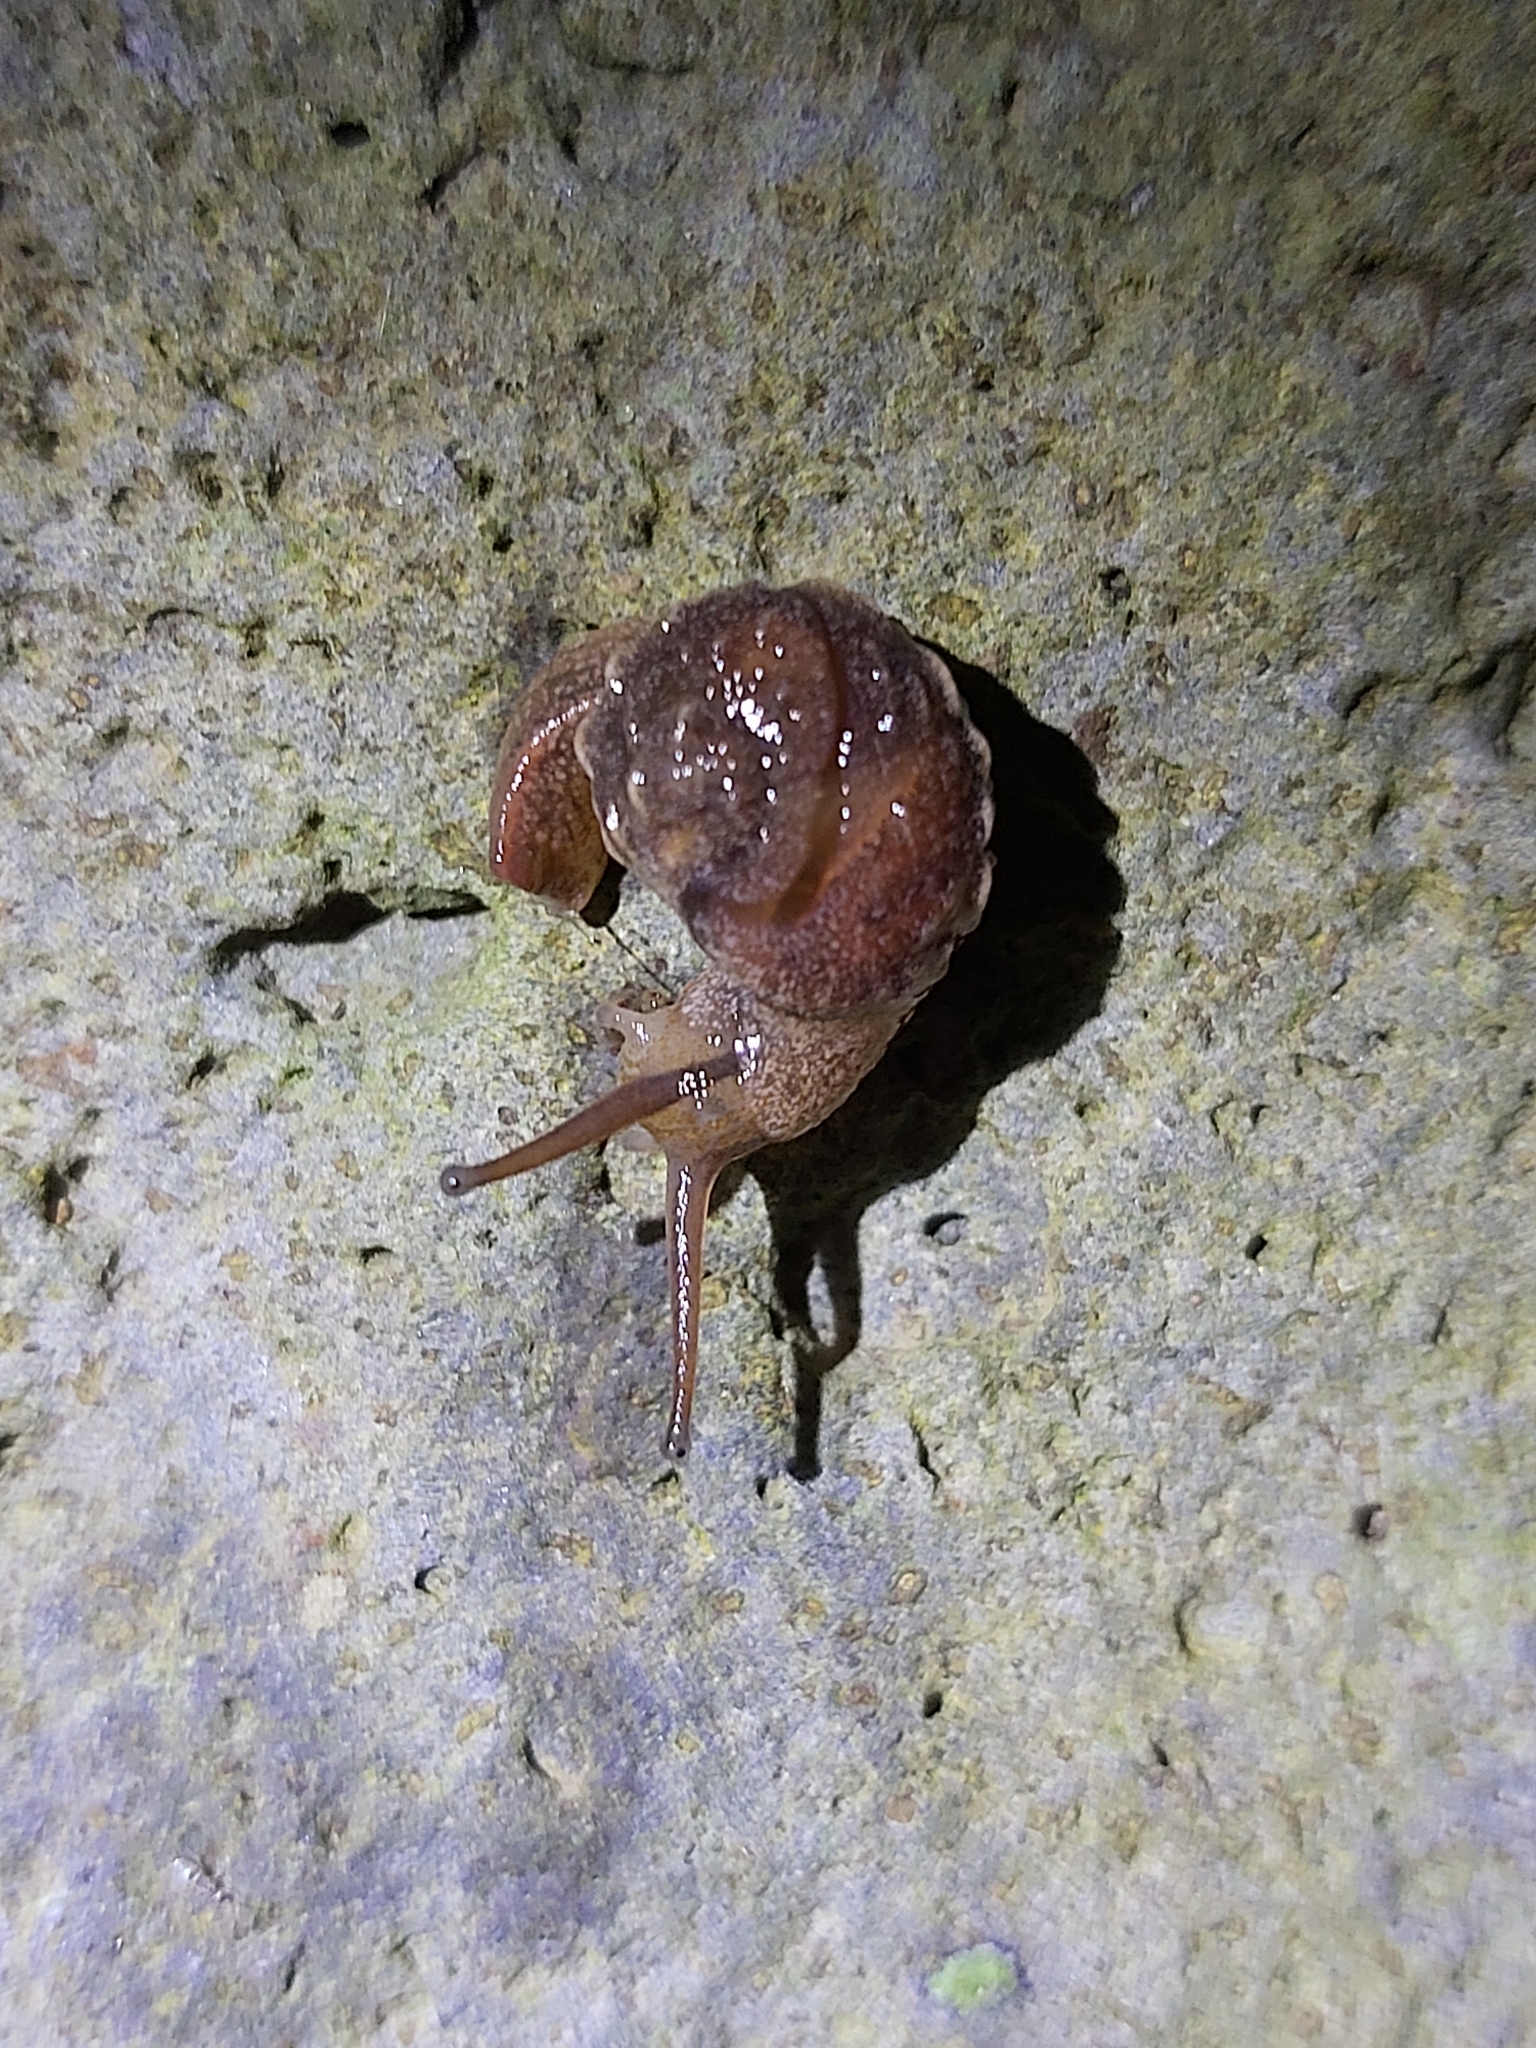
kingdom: Animalia
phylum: Mollusca
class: Gastropoda
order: Stylommatophora
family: Helicarionidae
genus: Fastosarion
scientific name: Fastosarion brazieri
